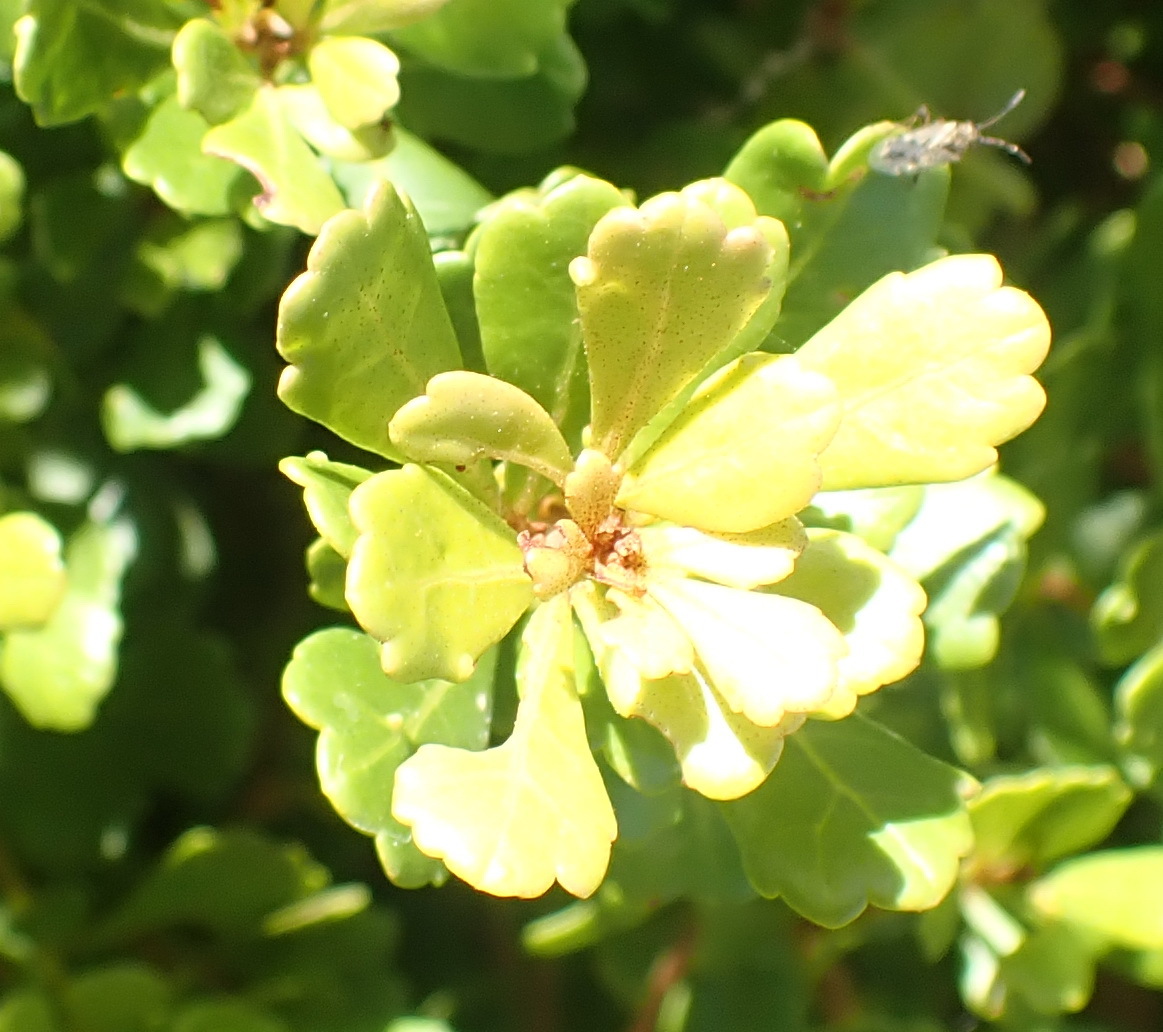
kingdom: Plantae
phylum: Tracheophyta
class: Magnoliopsida
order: Sapindales
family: Anacardiaceae
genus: Searsia
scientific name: Searsia crenata
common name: Crowberry
